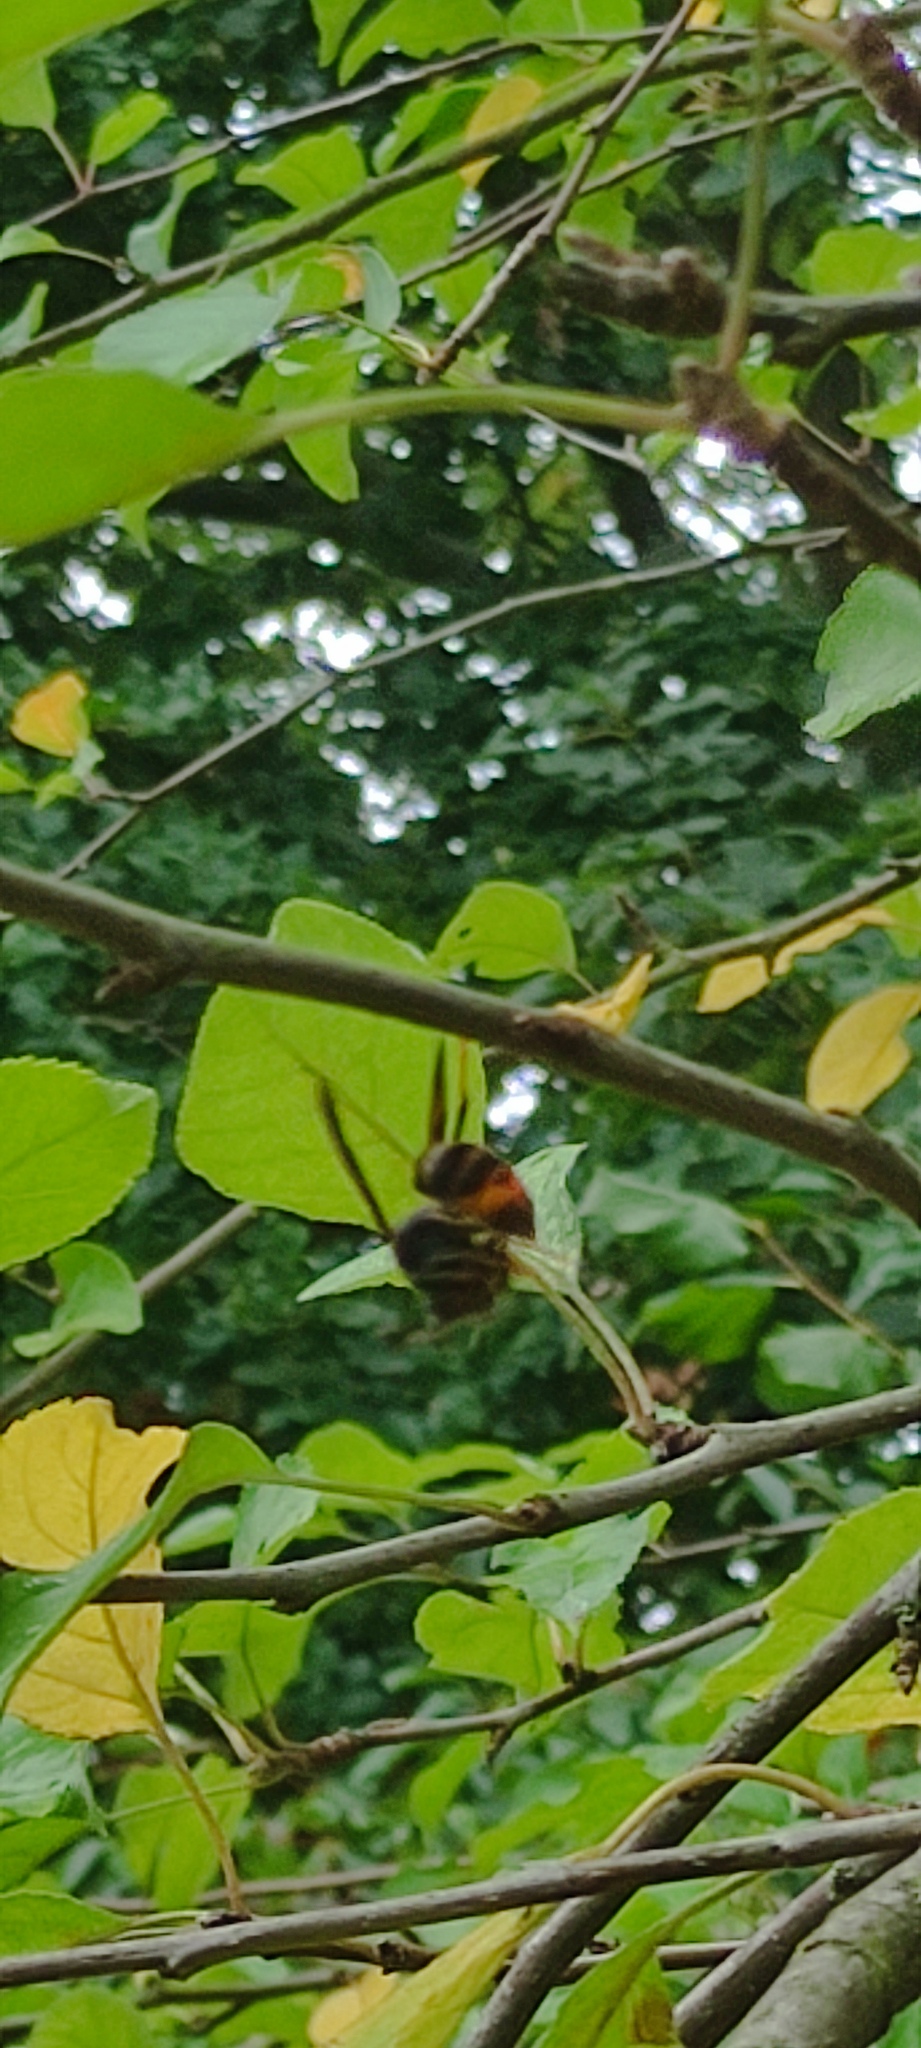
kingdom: Animalia
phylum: Arthropoda
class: Insecta
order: Hymenoptera
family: Vespidae
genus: Vespa
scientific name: Vespa velutina
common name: Asian hornet
